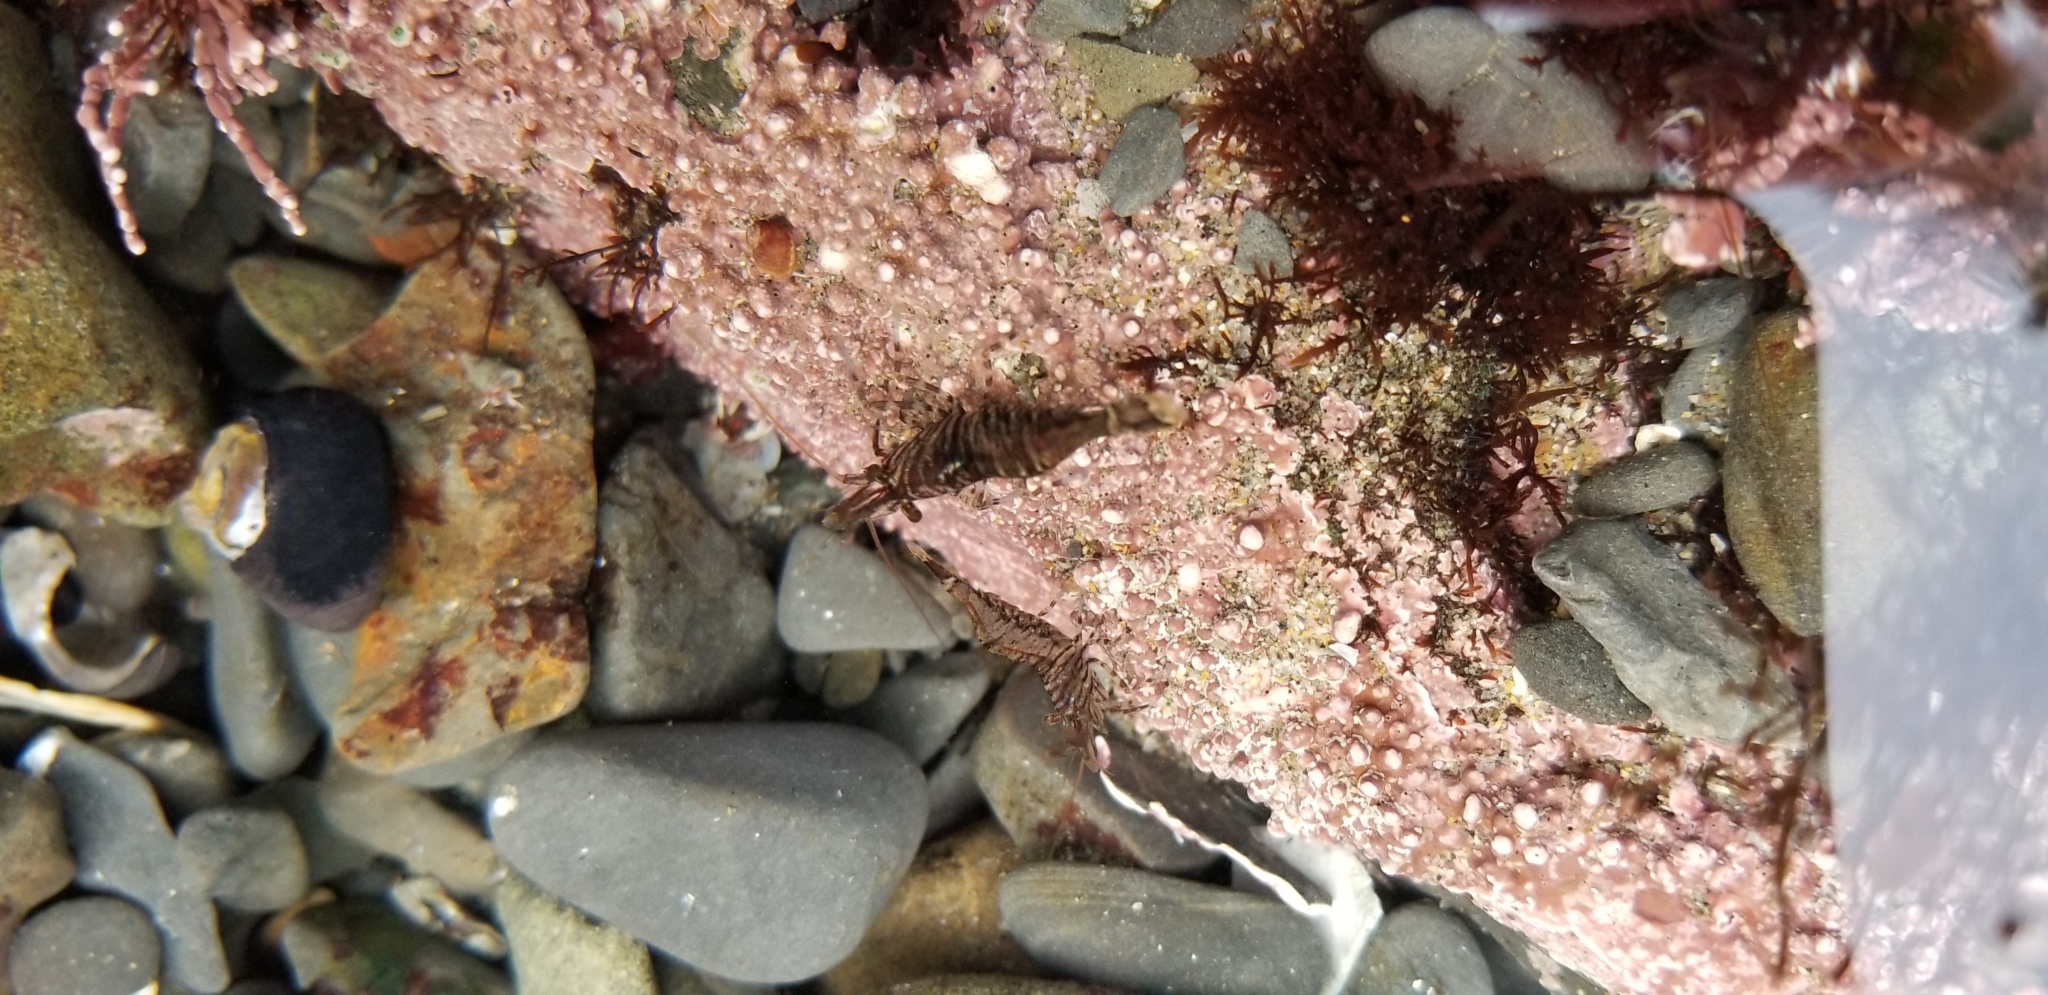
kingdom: Animalia
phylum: Arthropoda
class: Malacostraca
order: Decapoda
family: Thoridae
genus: Heptacarpus
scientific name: Heptacarpus sitchensis
